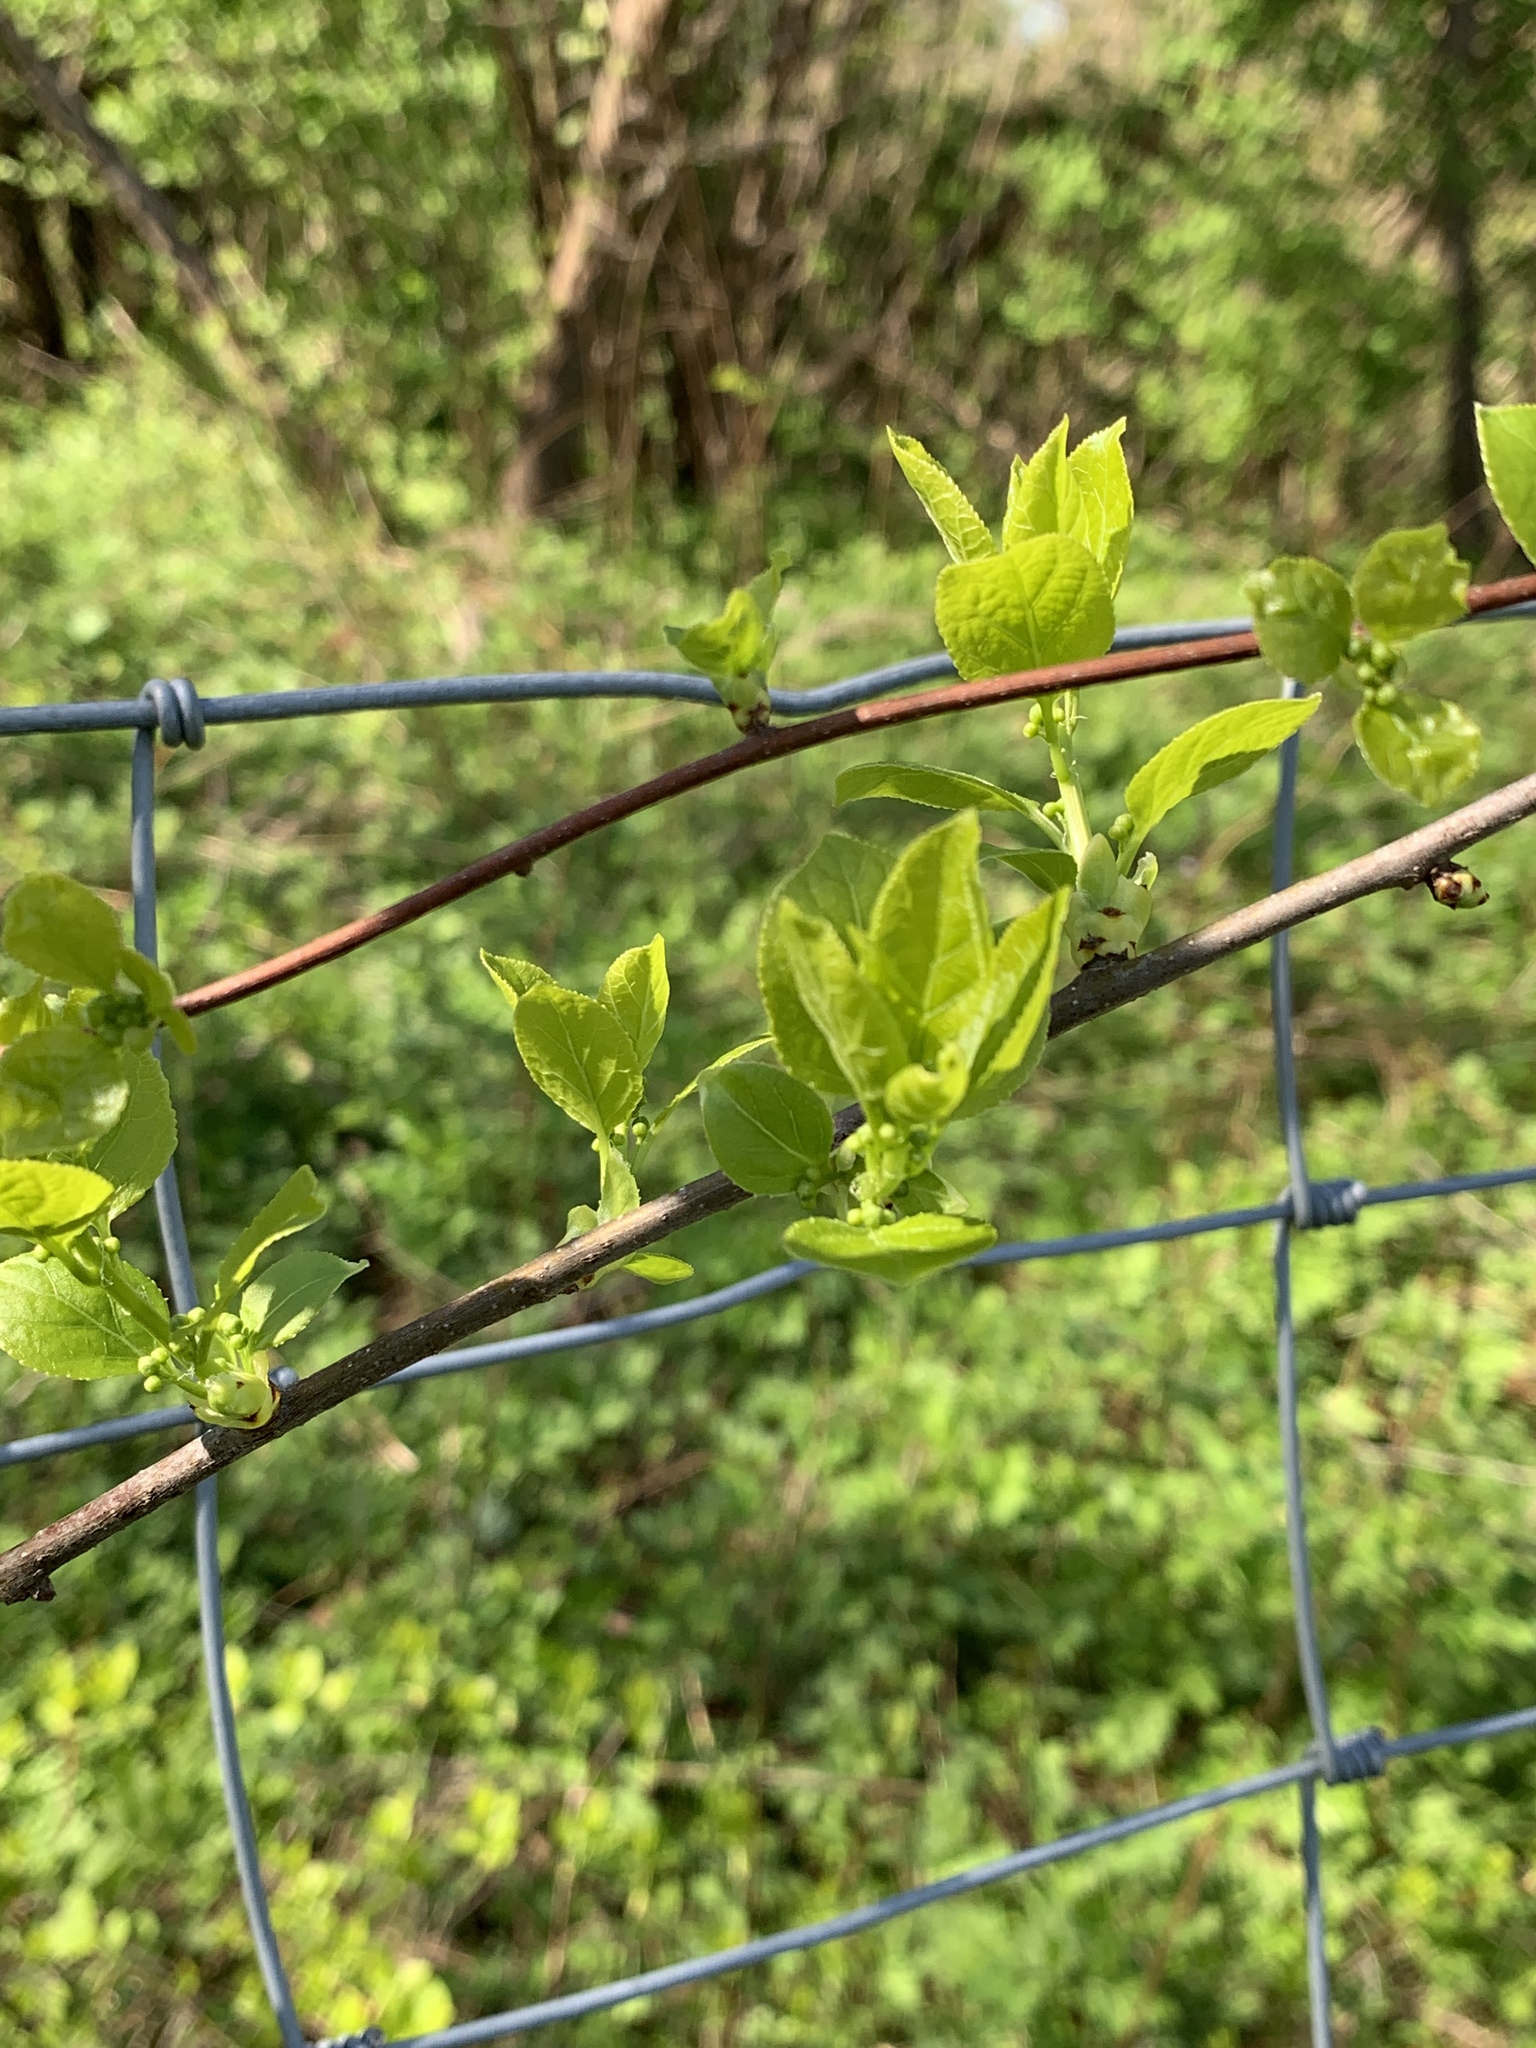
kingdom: Plantae
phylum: Tracheophyta
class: Magnoliopsida
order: Celastrales
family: Celastraceae
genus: Celastrus
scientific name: Celastrus orbiculatus
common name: Oriental bittersweet
